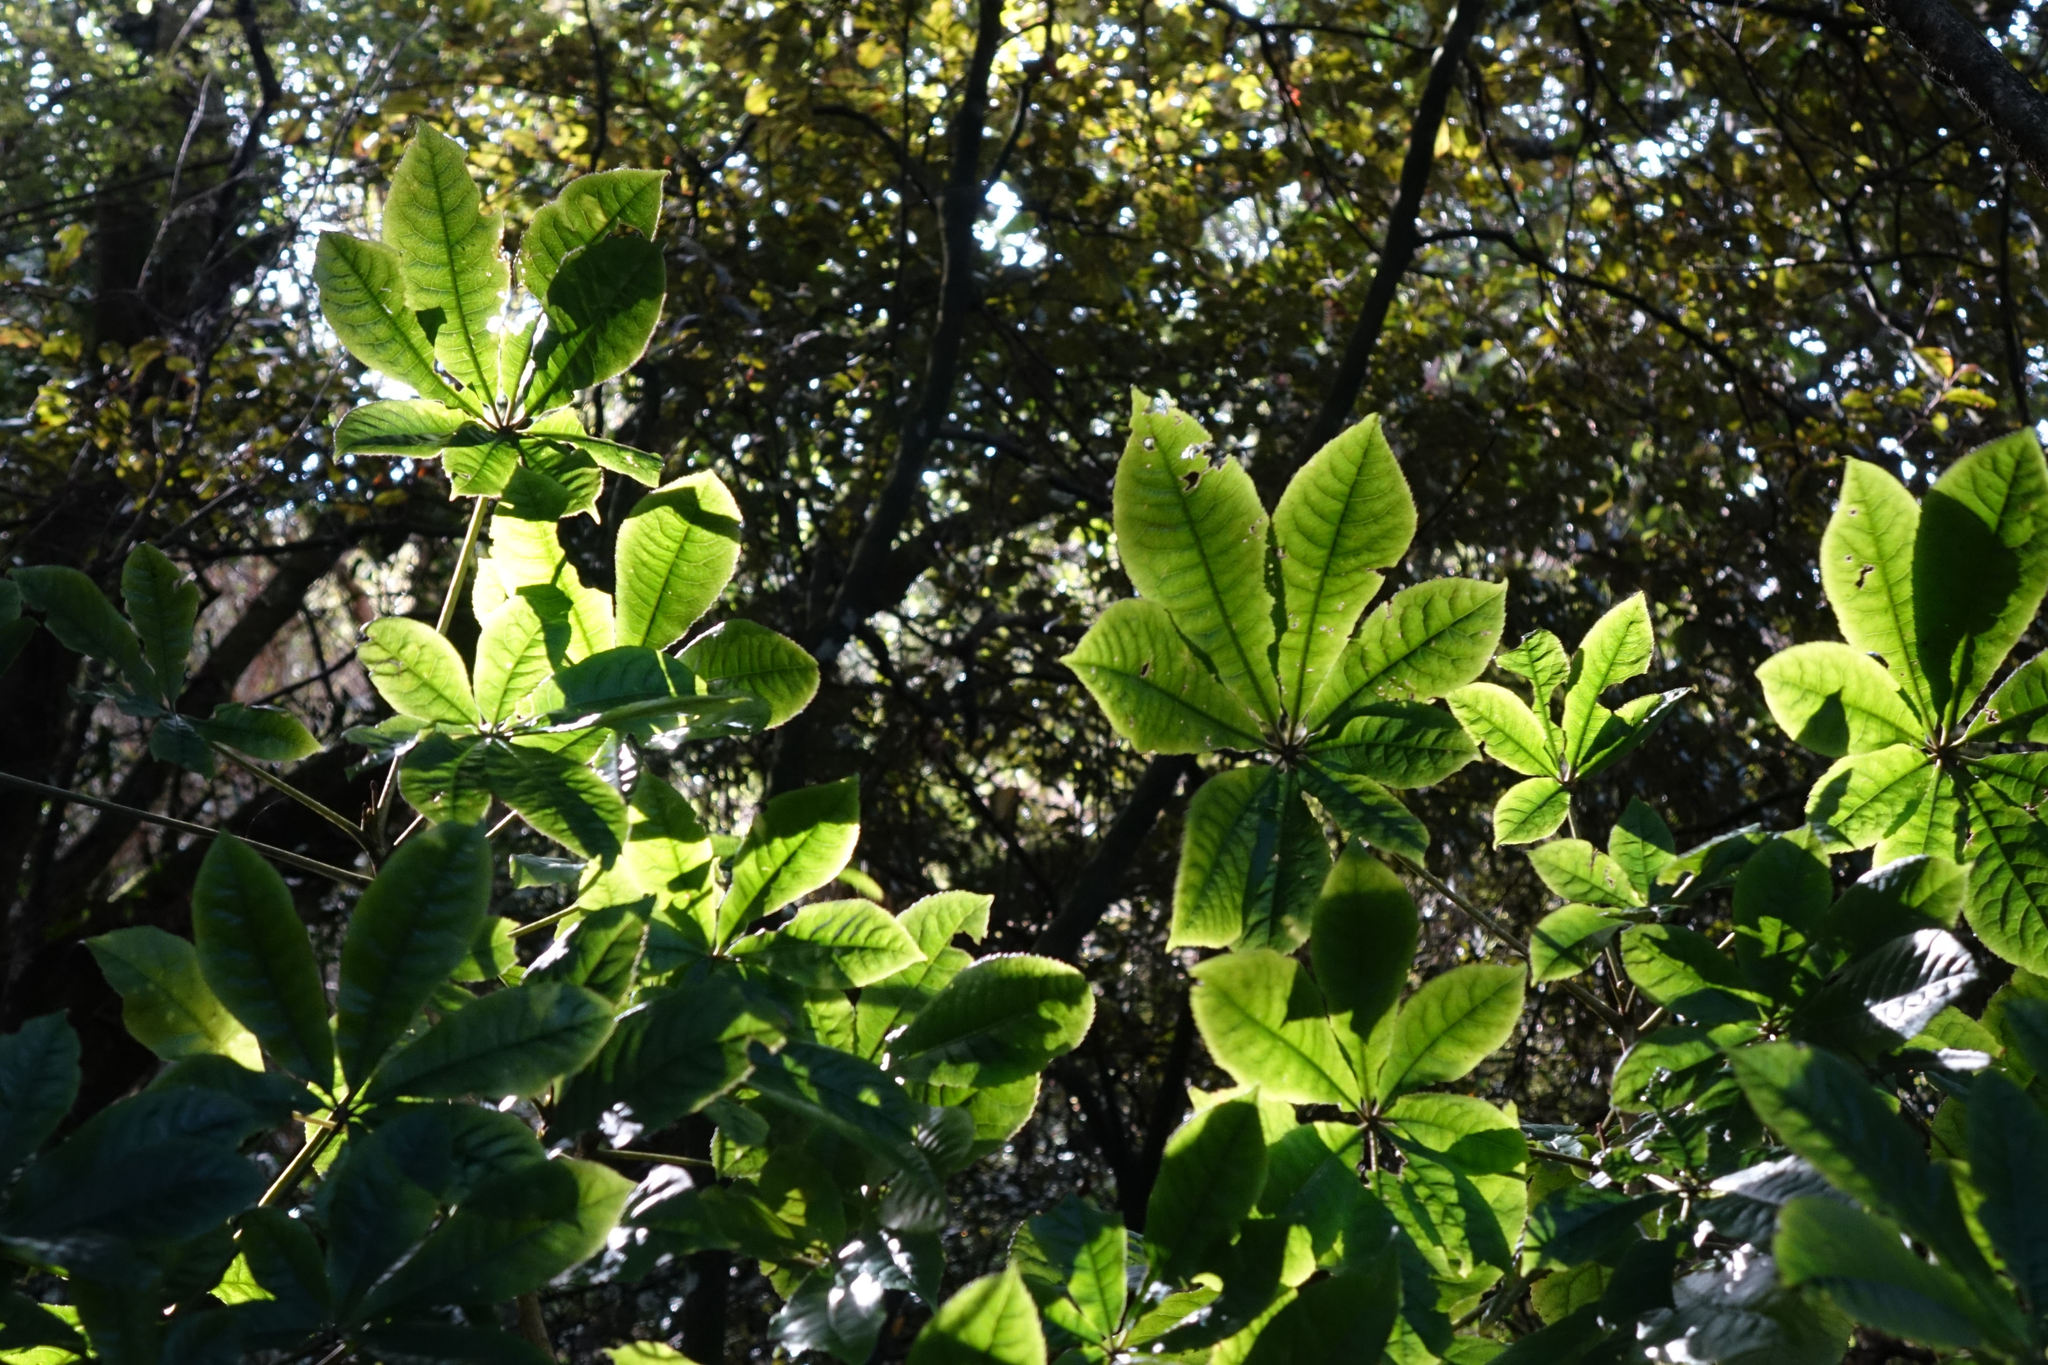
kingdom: Plantae
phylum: Tracheophyta
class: Magnoliopsida
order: Apiales
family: Araliaceae
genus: Schefflera
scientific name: Schefflera digitata
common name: Pate
